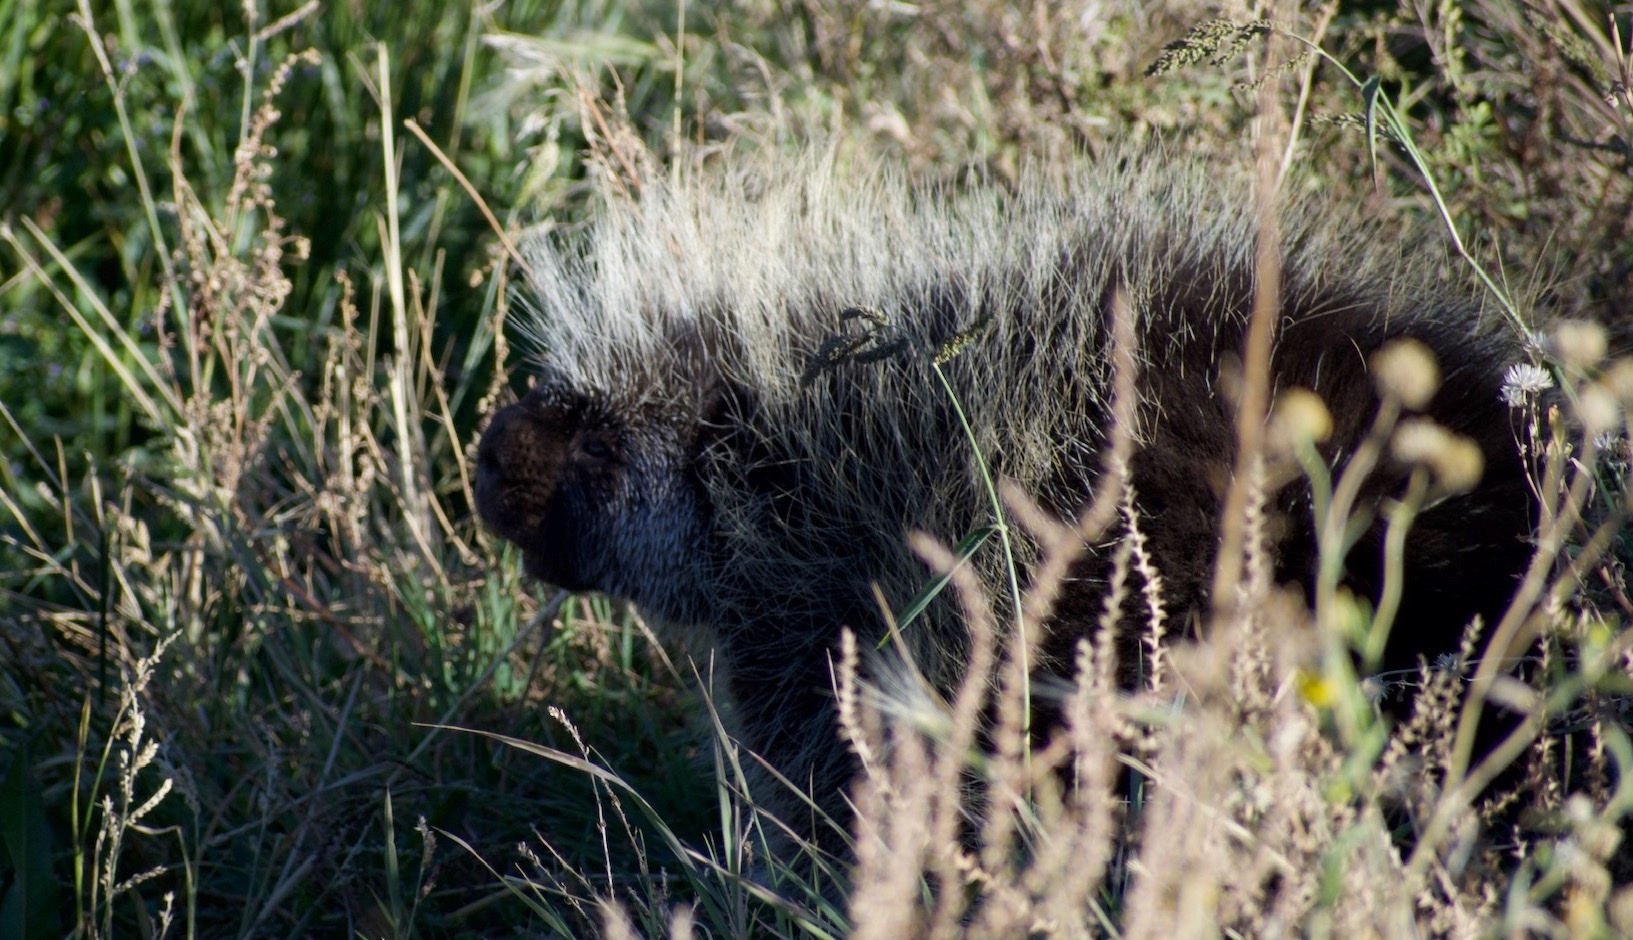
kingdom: Animalia
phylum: Chordata
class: Mammalia
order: Rodentia
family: Erethizontidae
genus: Erethizon
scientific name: Erethizon dorsatus
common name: North american porcupine
